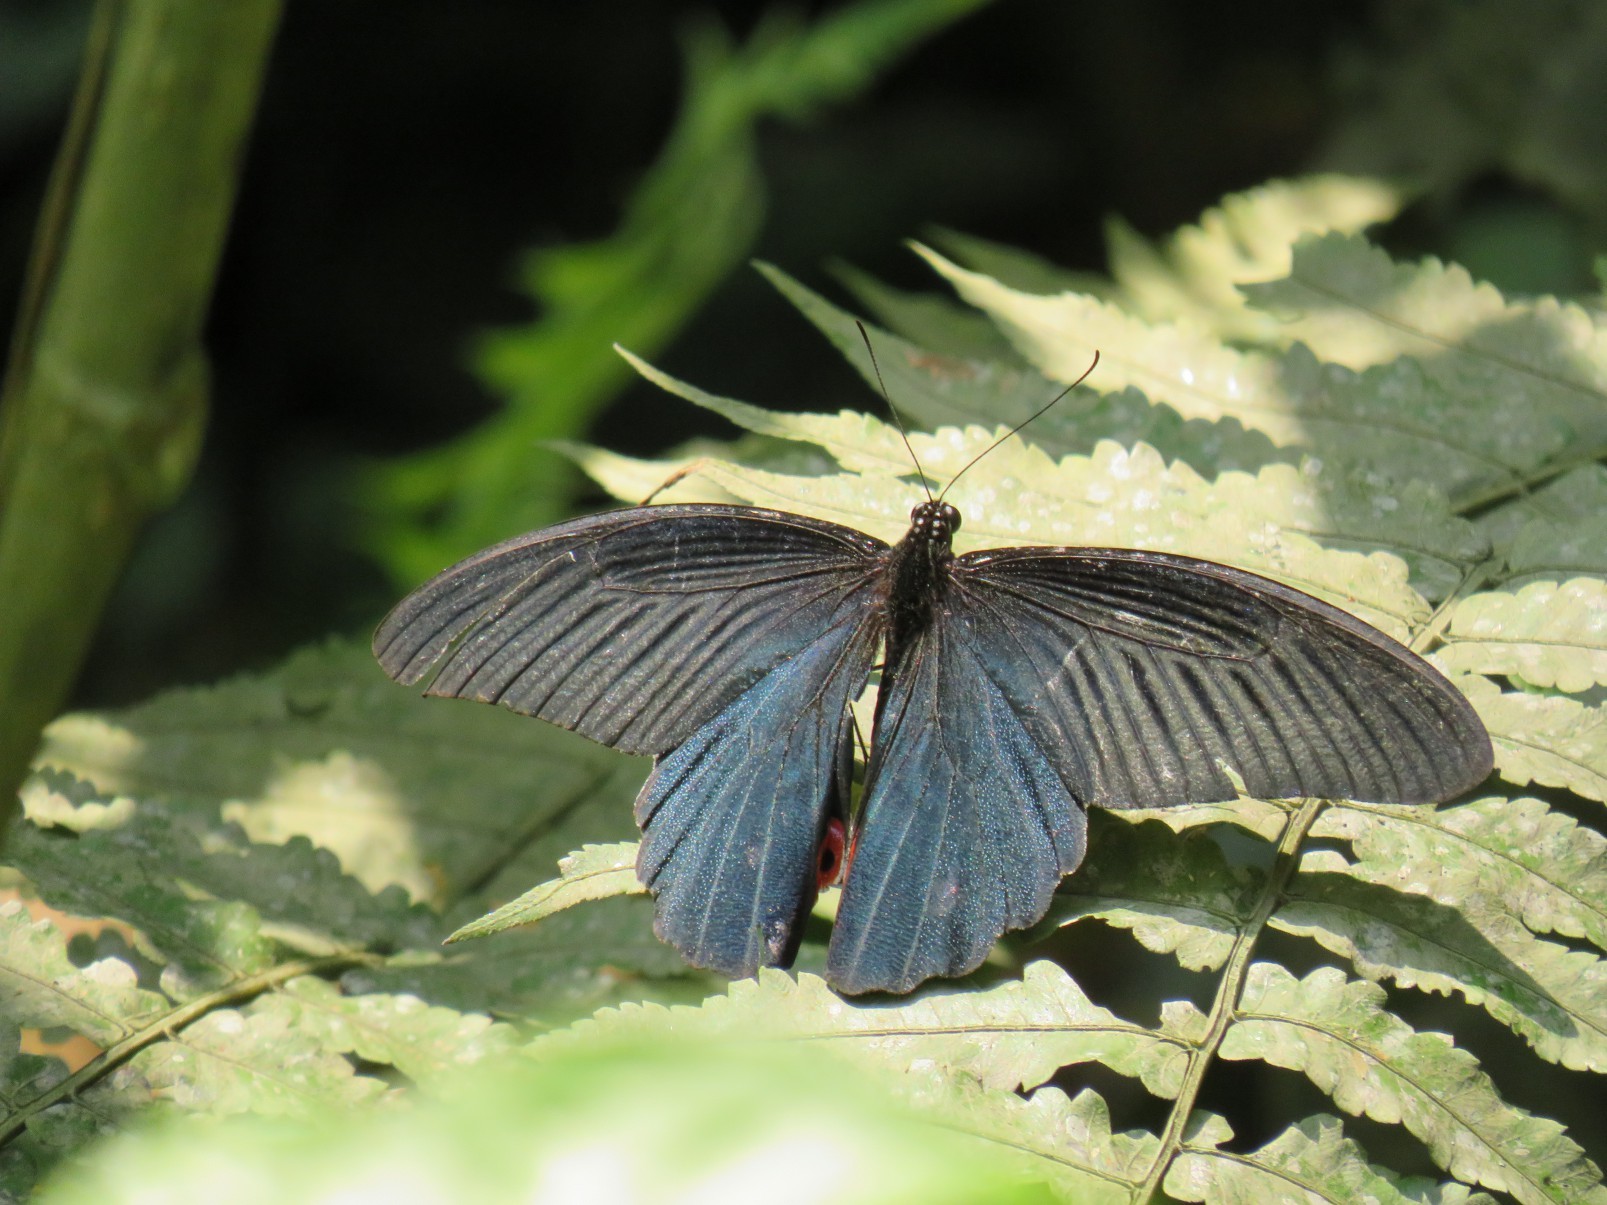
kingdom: Animalia
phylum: Arthropoda
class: Insecta
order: Lepidoptera
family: Papilionidae
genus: Papilio
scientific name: Papilio alcmenor
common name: Redbreast
